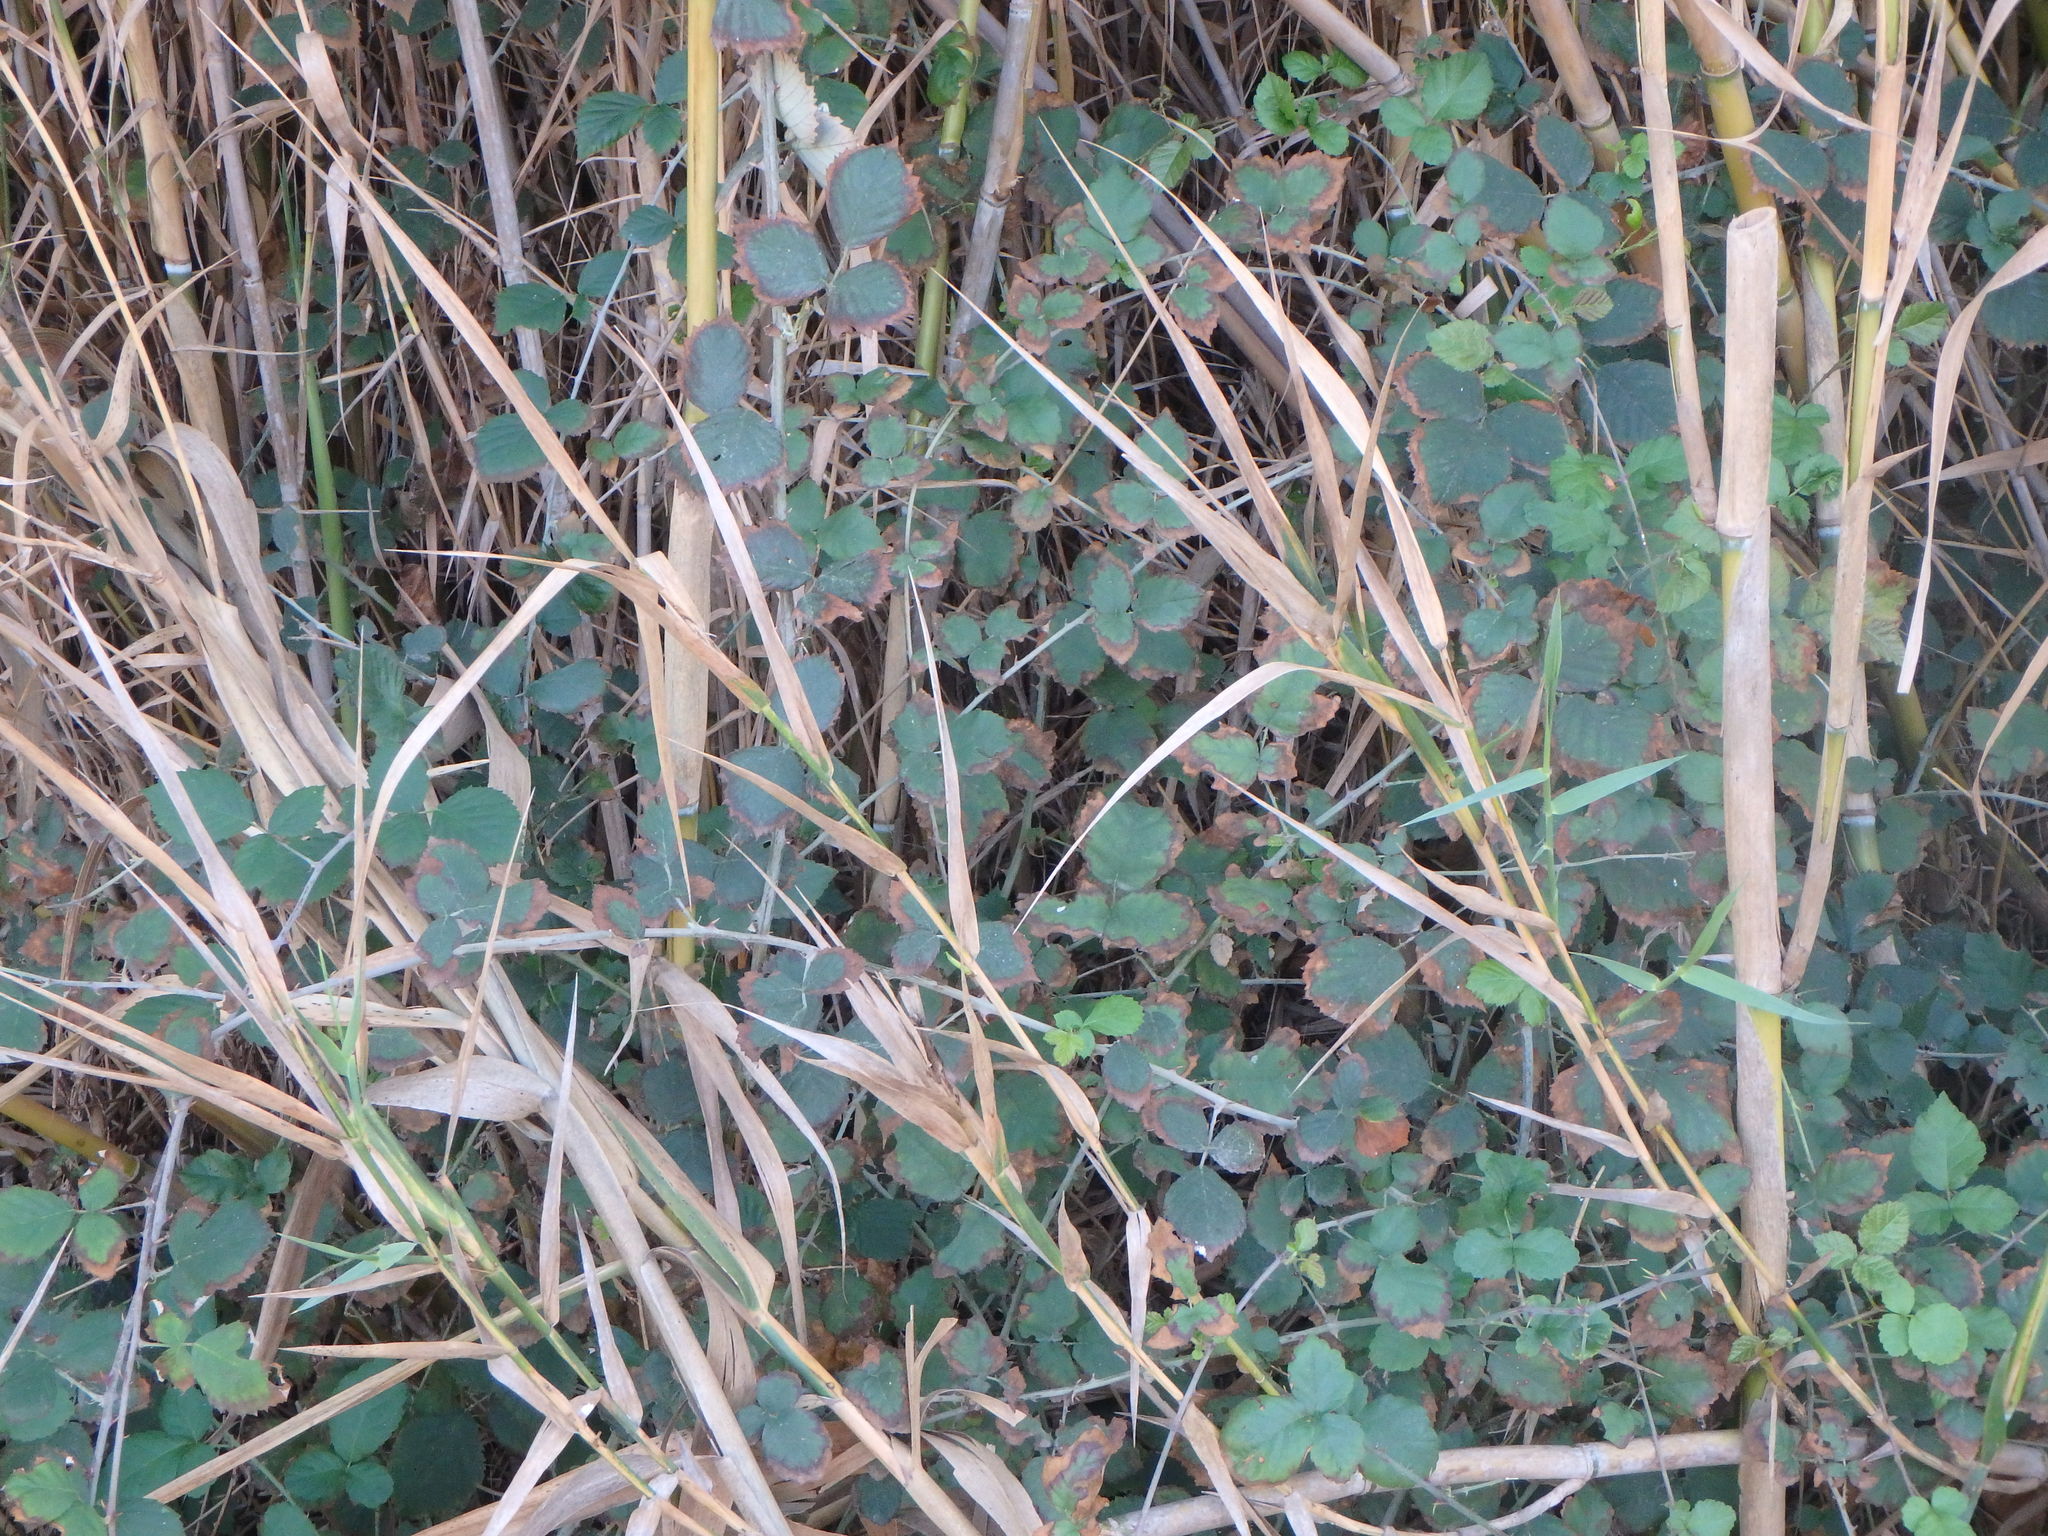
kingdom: Plantae
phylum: Tracheophyta
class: Magnoliopsida
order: Rosales
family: Rosaceae
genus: Rubus
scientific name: Rubus sanctus
